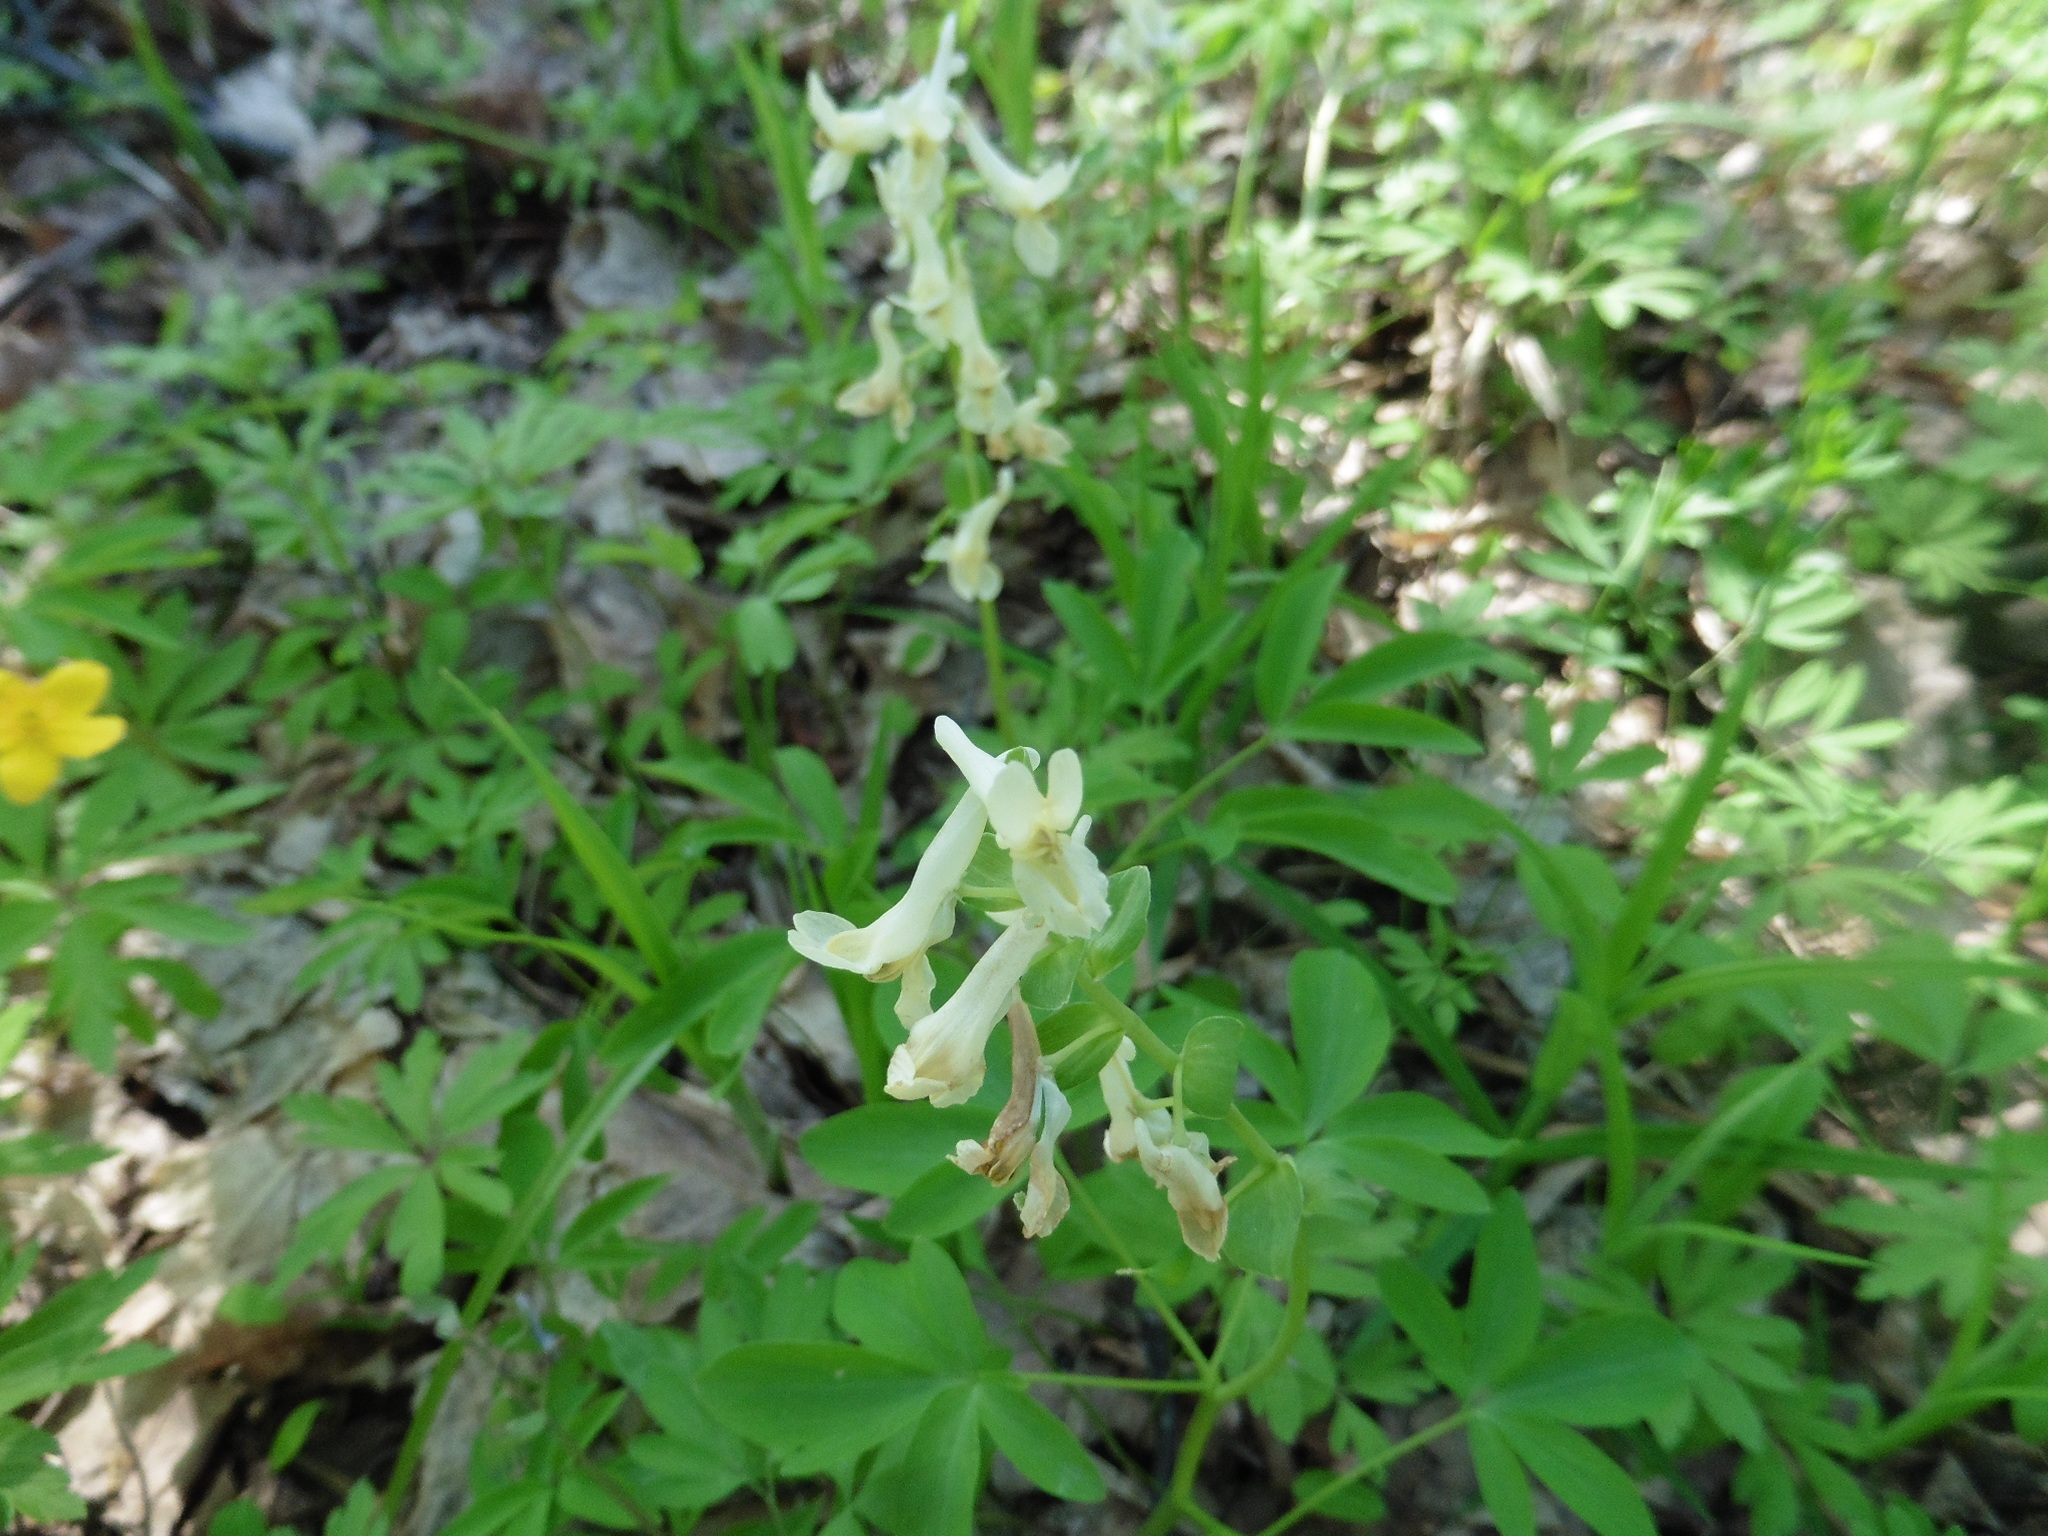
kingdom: Plantae
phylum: Tracheophyta
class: Magnoliopsida
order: Ranunculales
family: Papaveraceae
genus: Corydalis
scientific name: Corydalis cava
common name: Hollowroot
